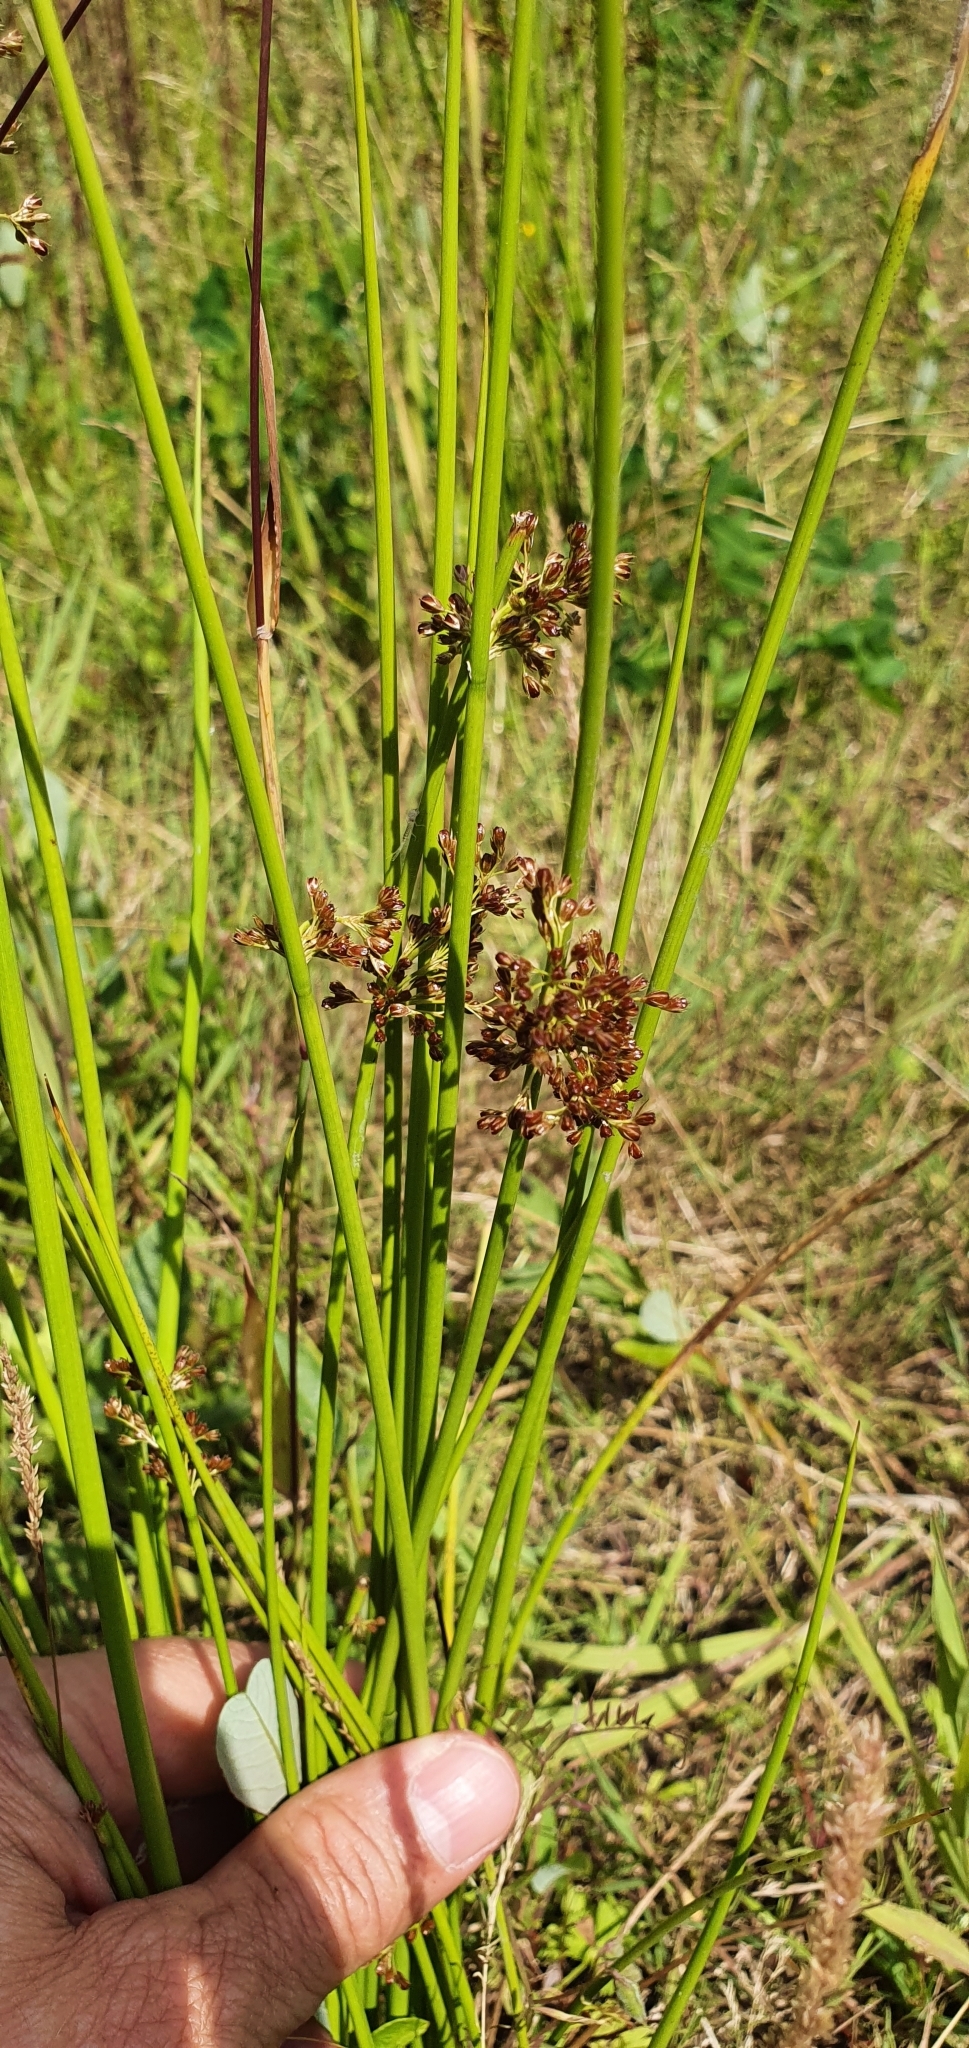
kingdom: Plantae
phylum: Tracheophyta
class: Liliopsida
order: Poales
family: Juncaceae
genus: Juncus
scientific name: Juncus effusus
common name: Soft rush
